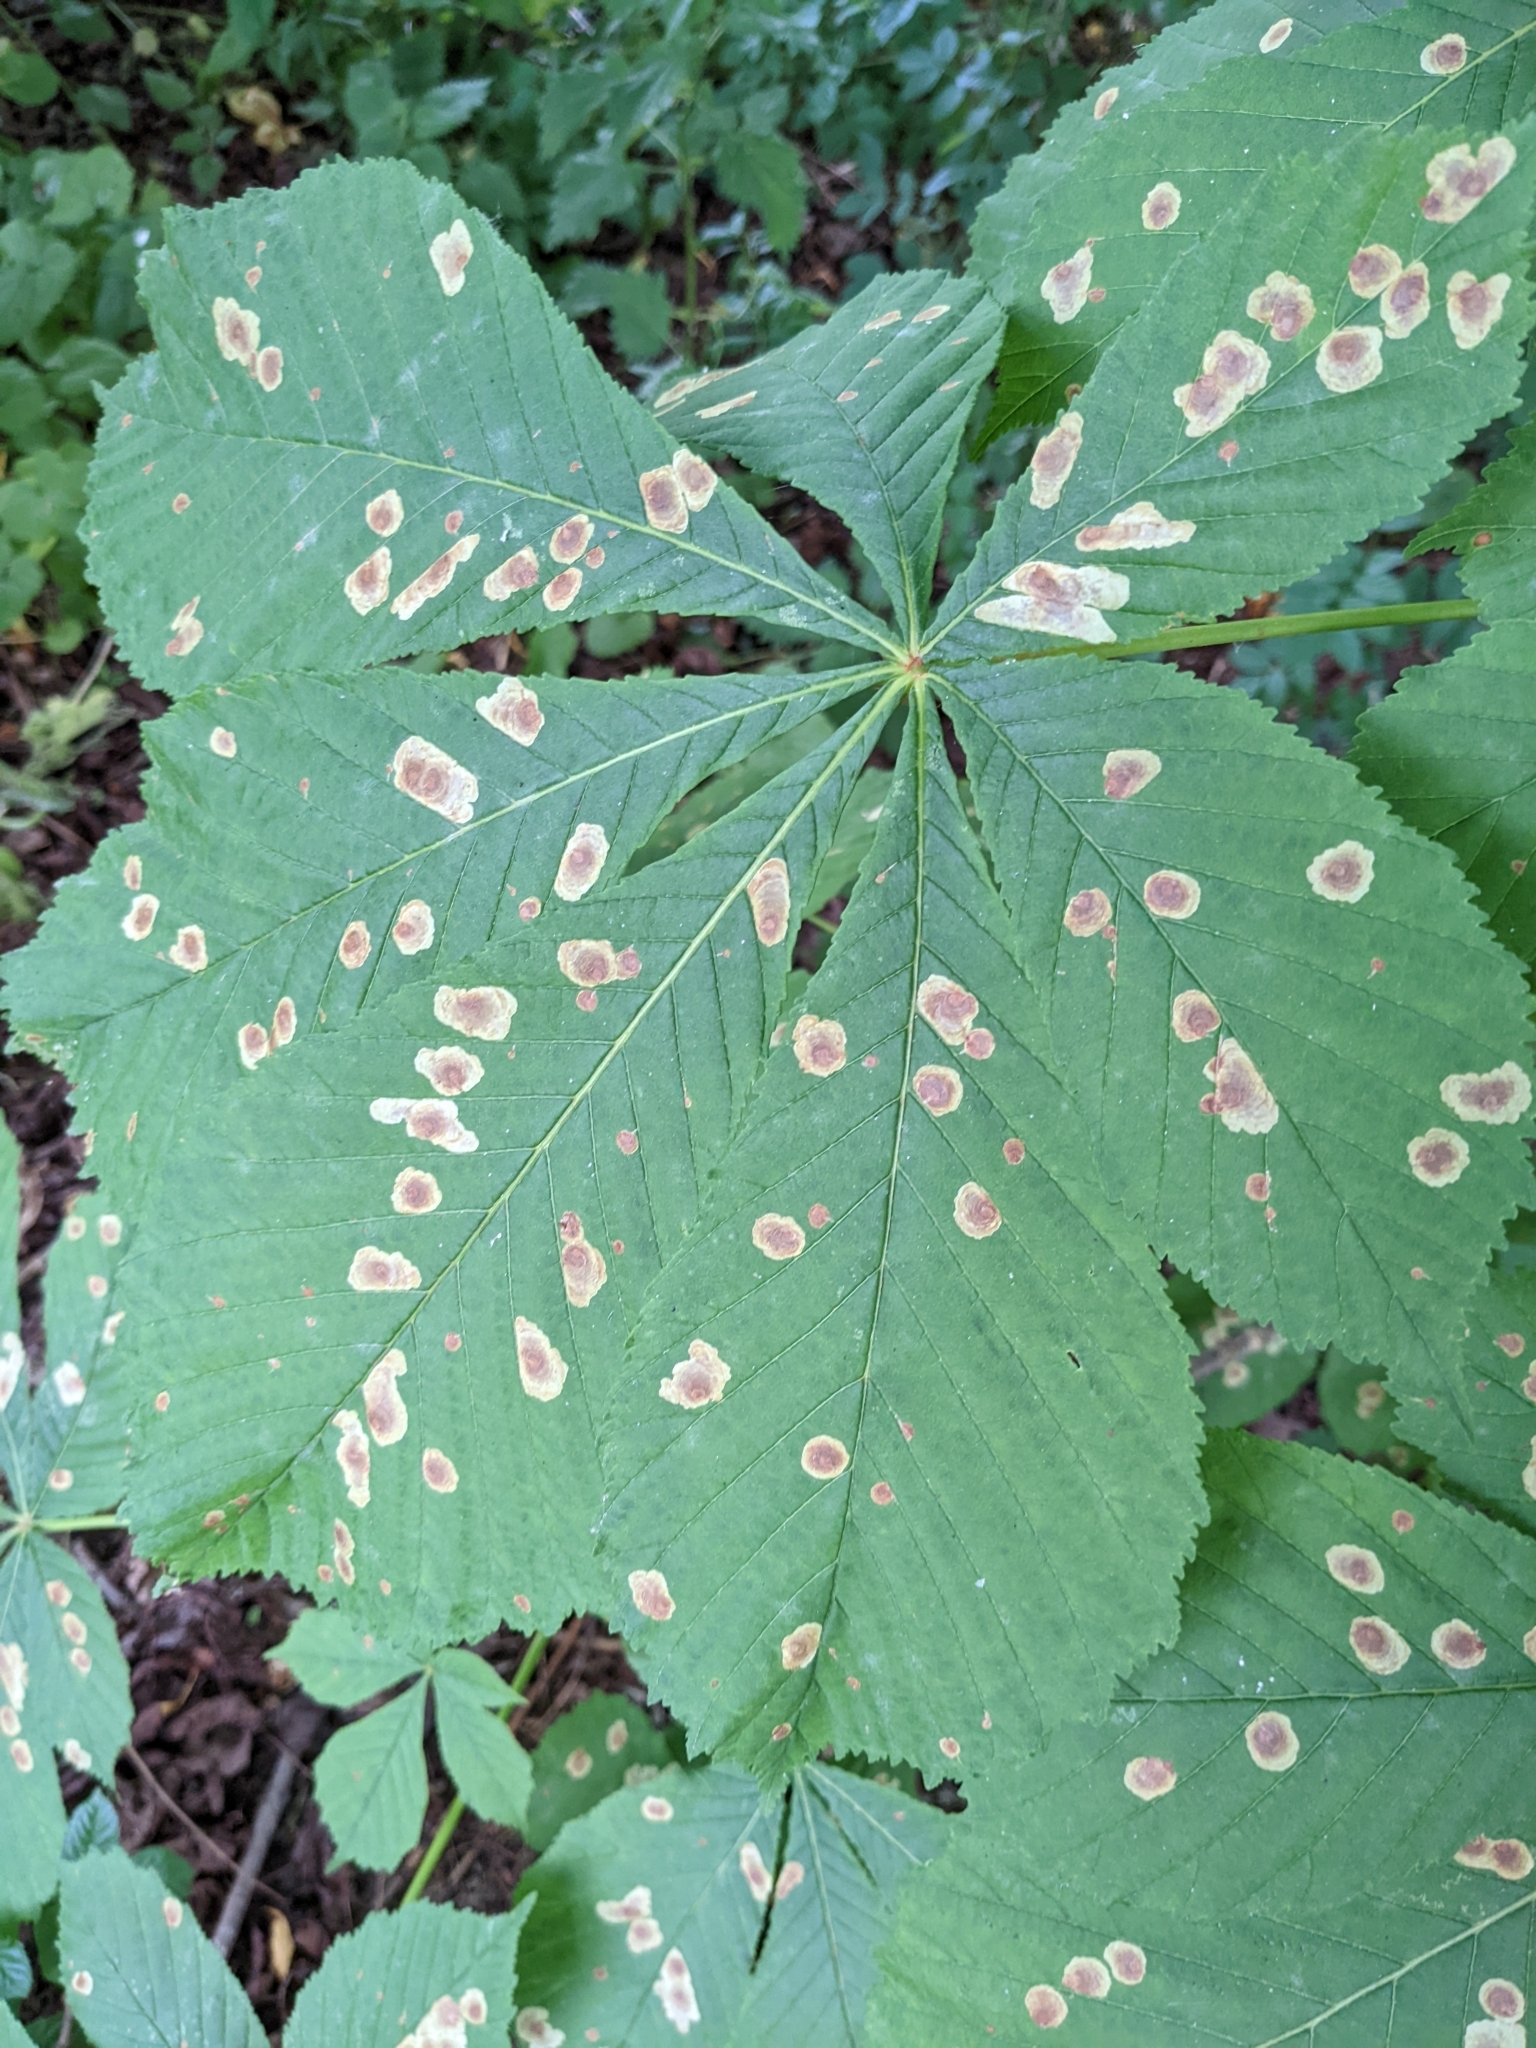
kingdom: Animalia
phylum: Arthropoda
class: Insecta
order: Lepidoptera
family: Gracillariidae
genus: Cameraria
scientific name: Cameraria ohridella
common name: Horse-chestnut leaf-miner
